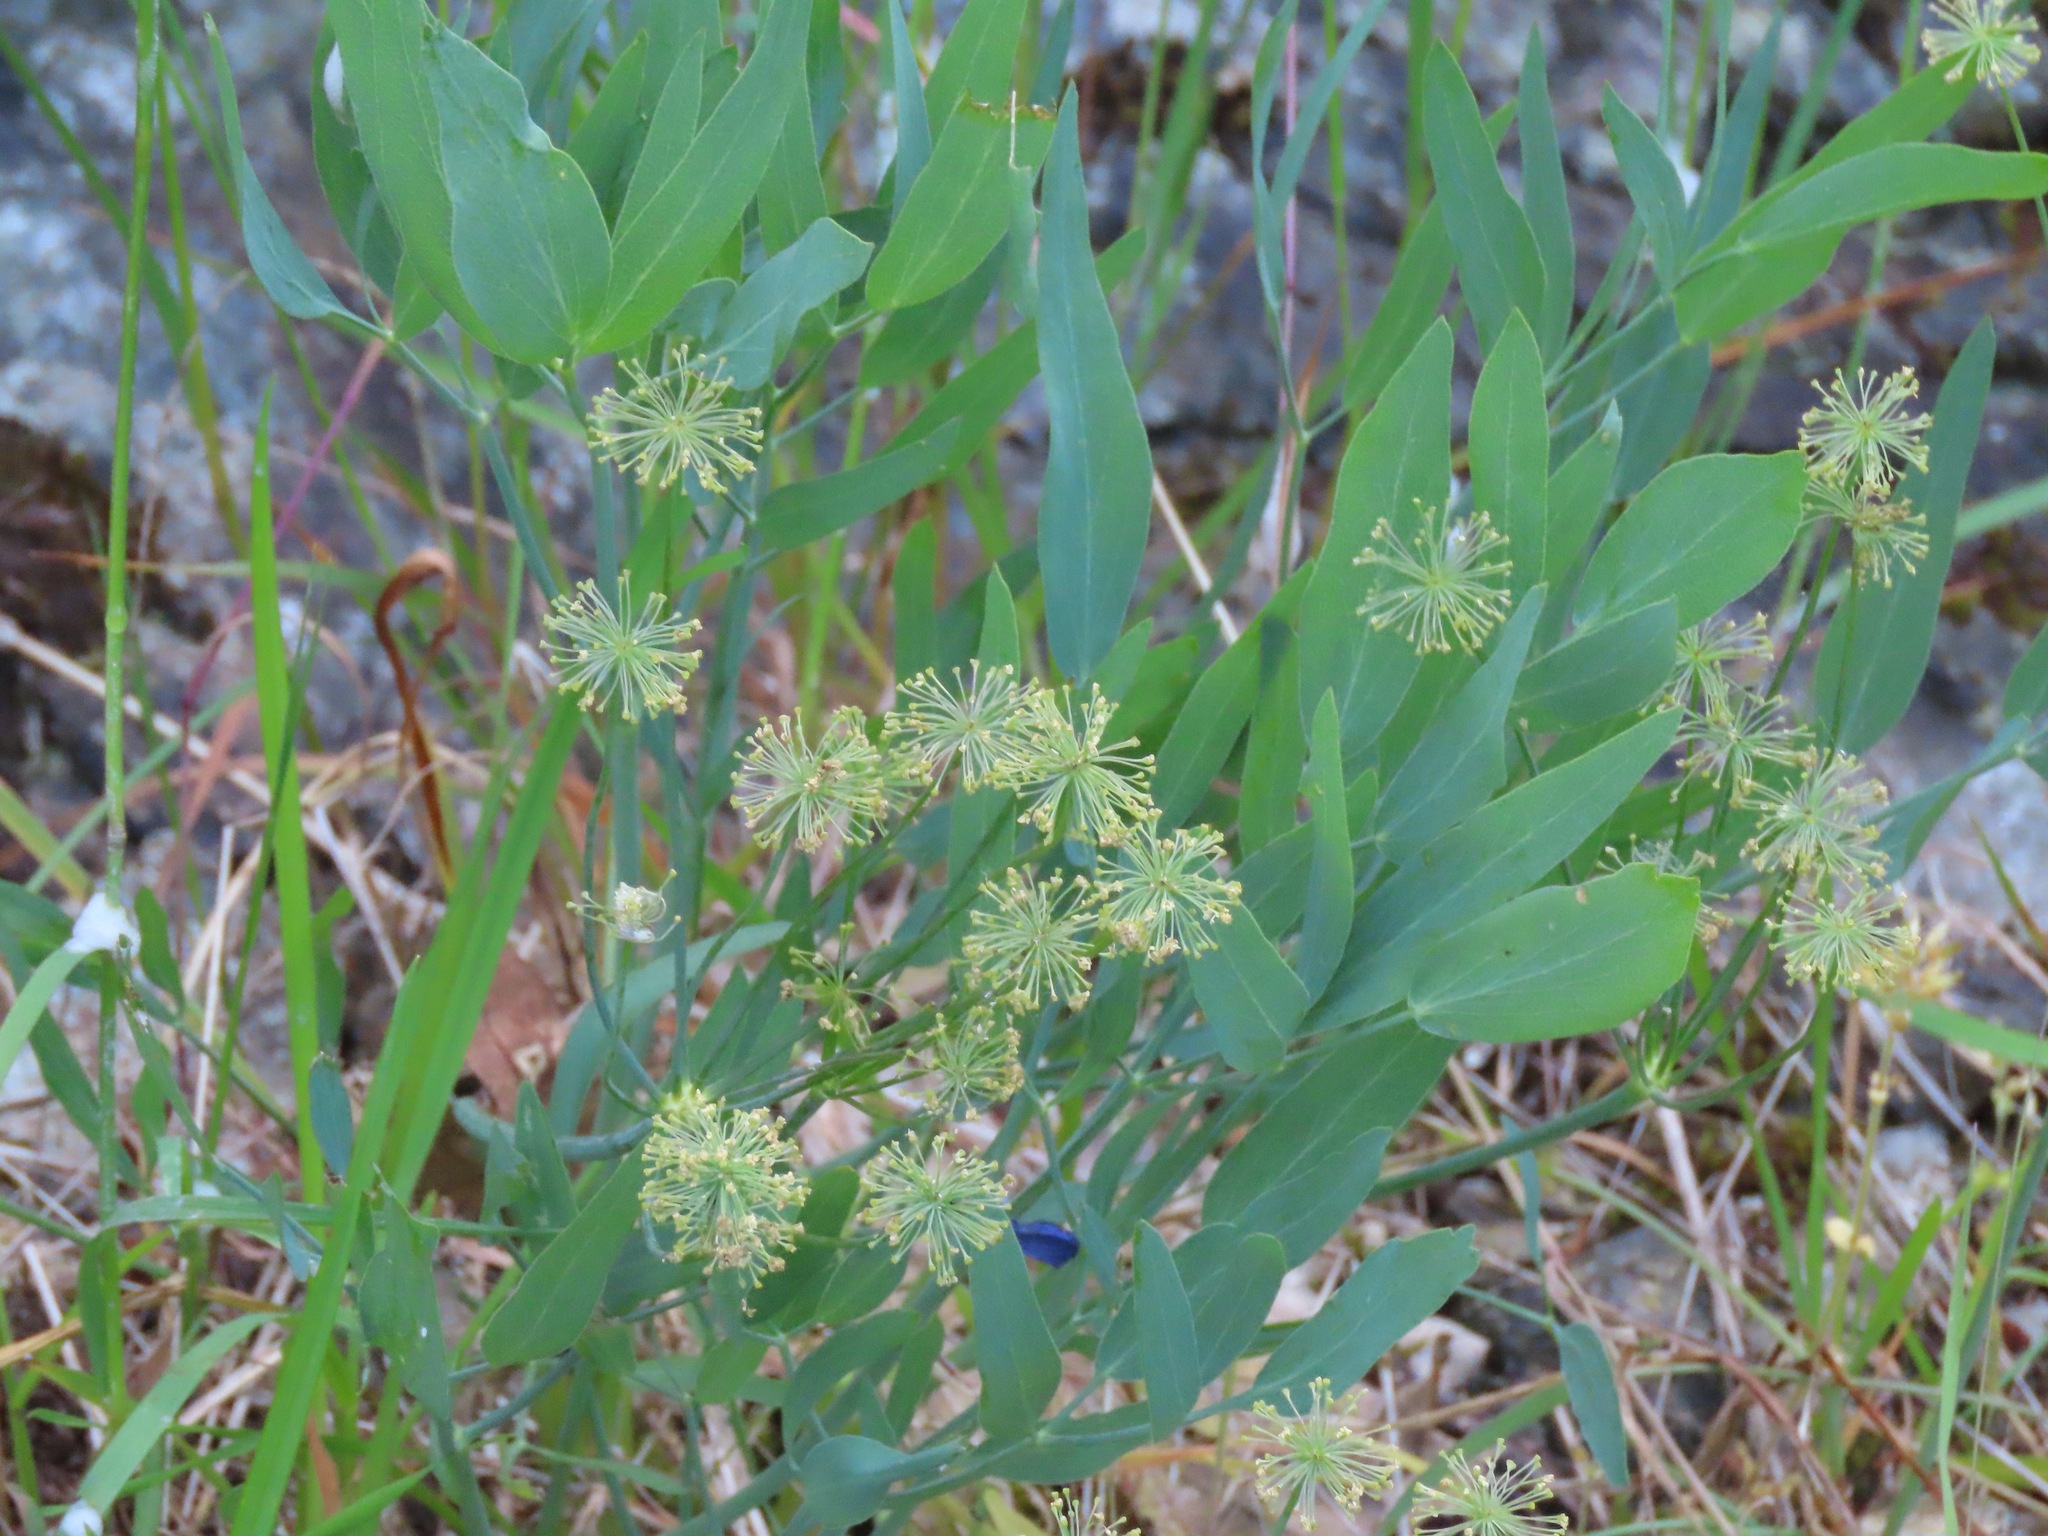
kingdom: Plantae
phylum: Tracheophyta
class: Magnoliopsida
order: Apiales
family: Apiaceae
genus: Lomatium
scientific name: Lomatium nudicaule
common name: Pestle lomatium
